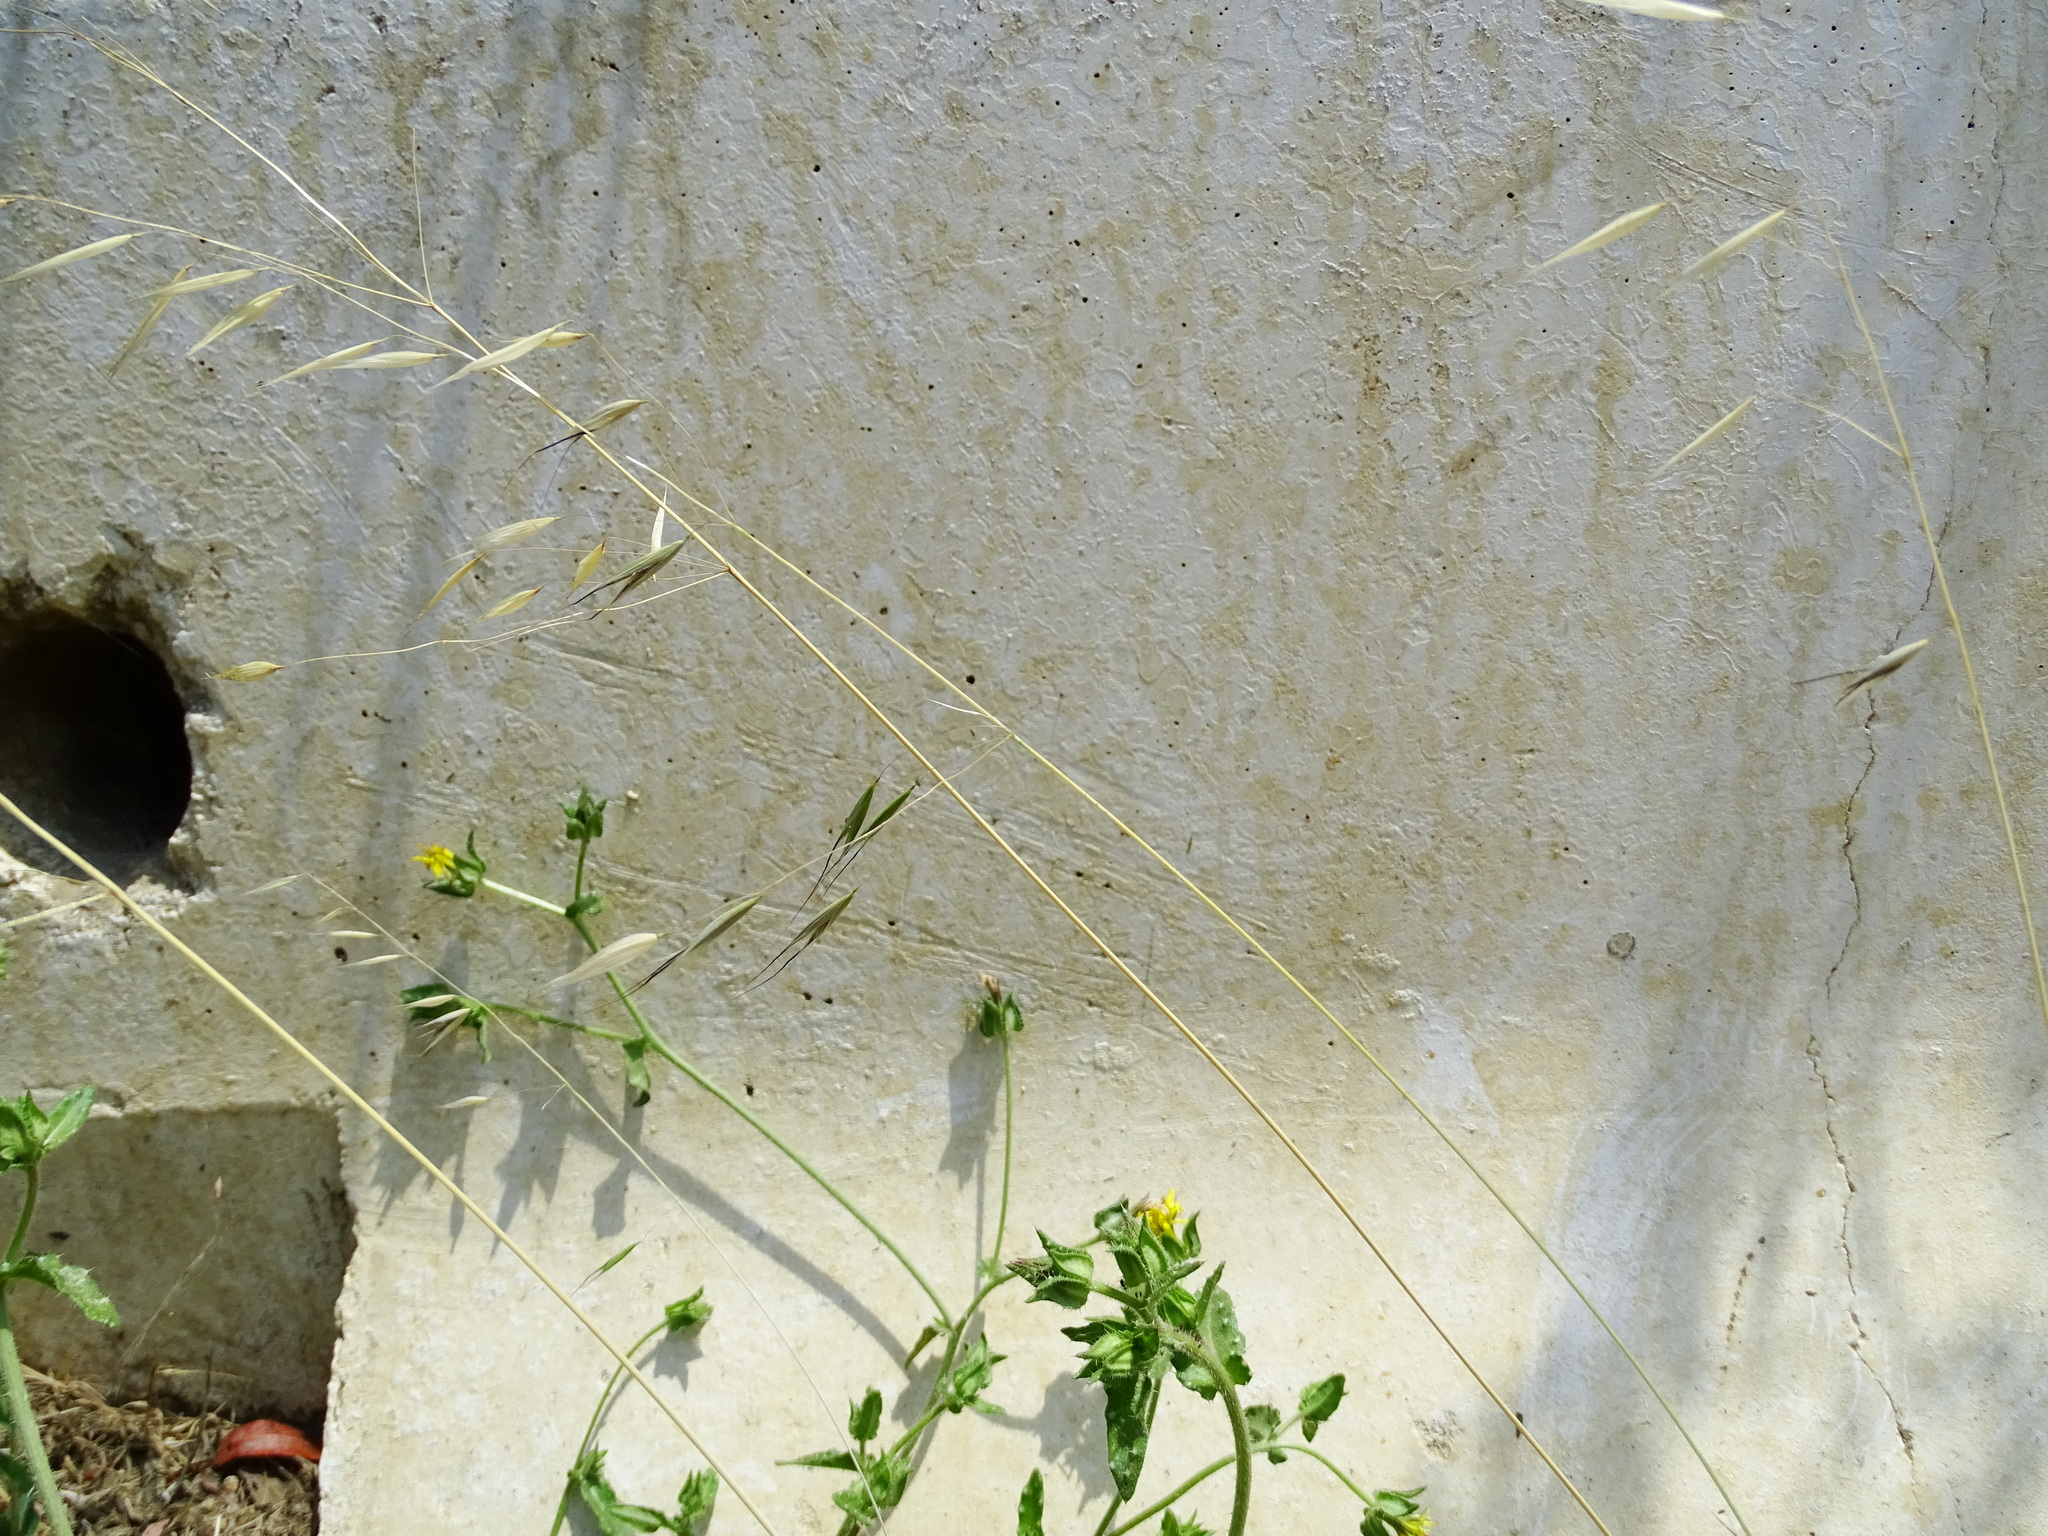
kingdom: Plantae
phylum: Tracheophyta
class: Liliopsida
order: Poales
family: Poaceae
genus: Avena
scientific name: Avena barbata
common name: Slender oat
